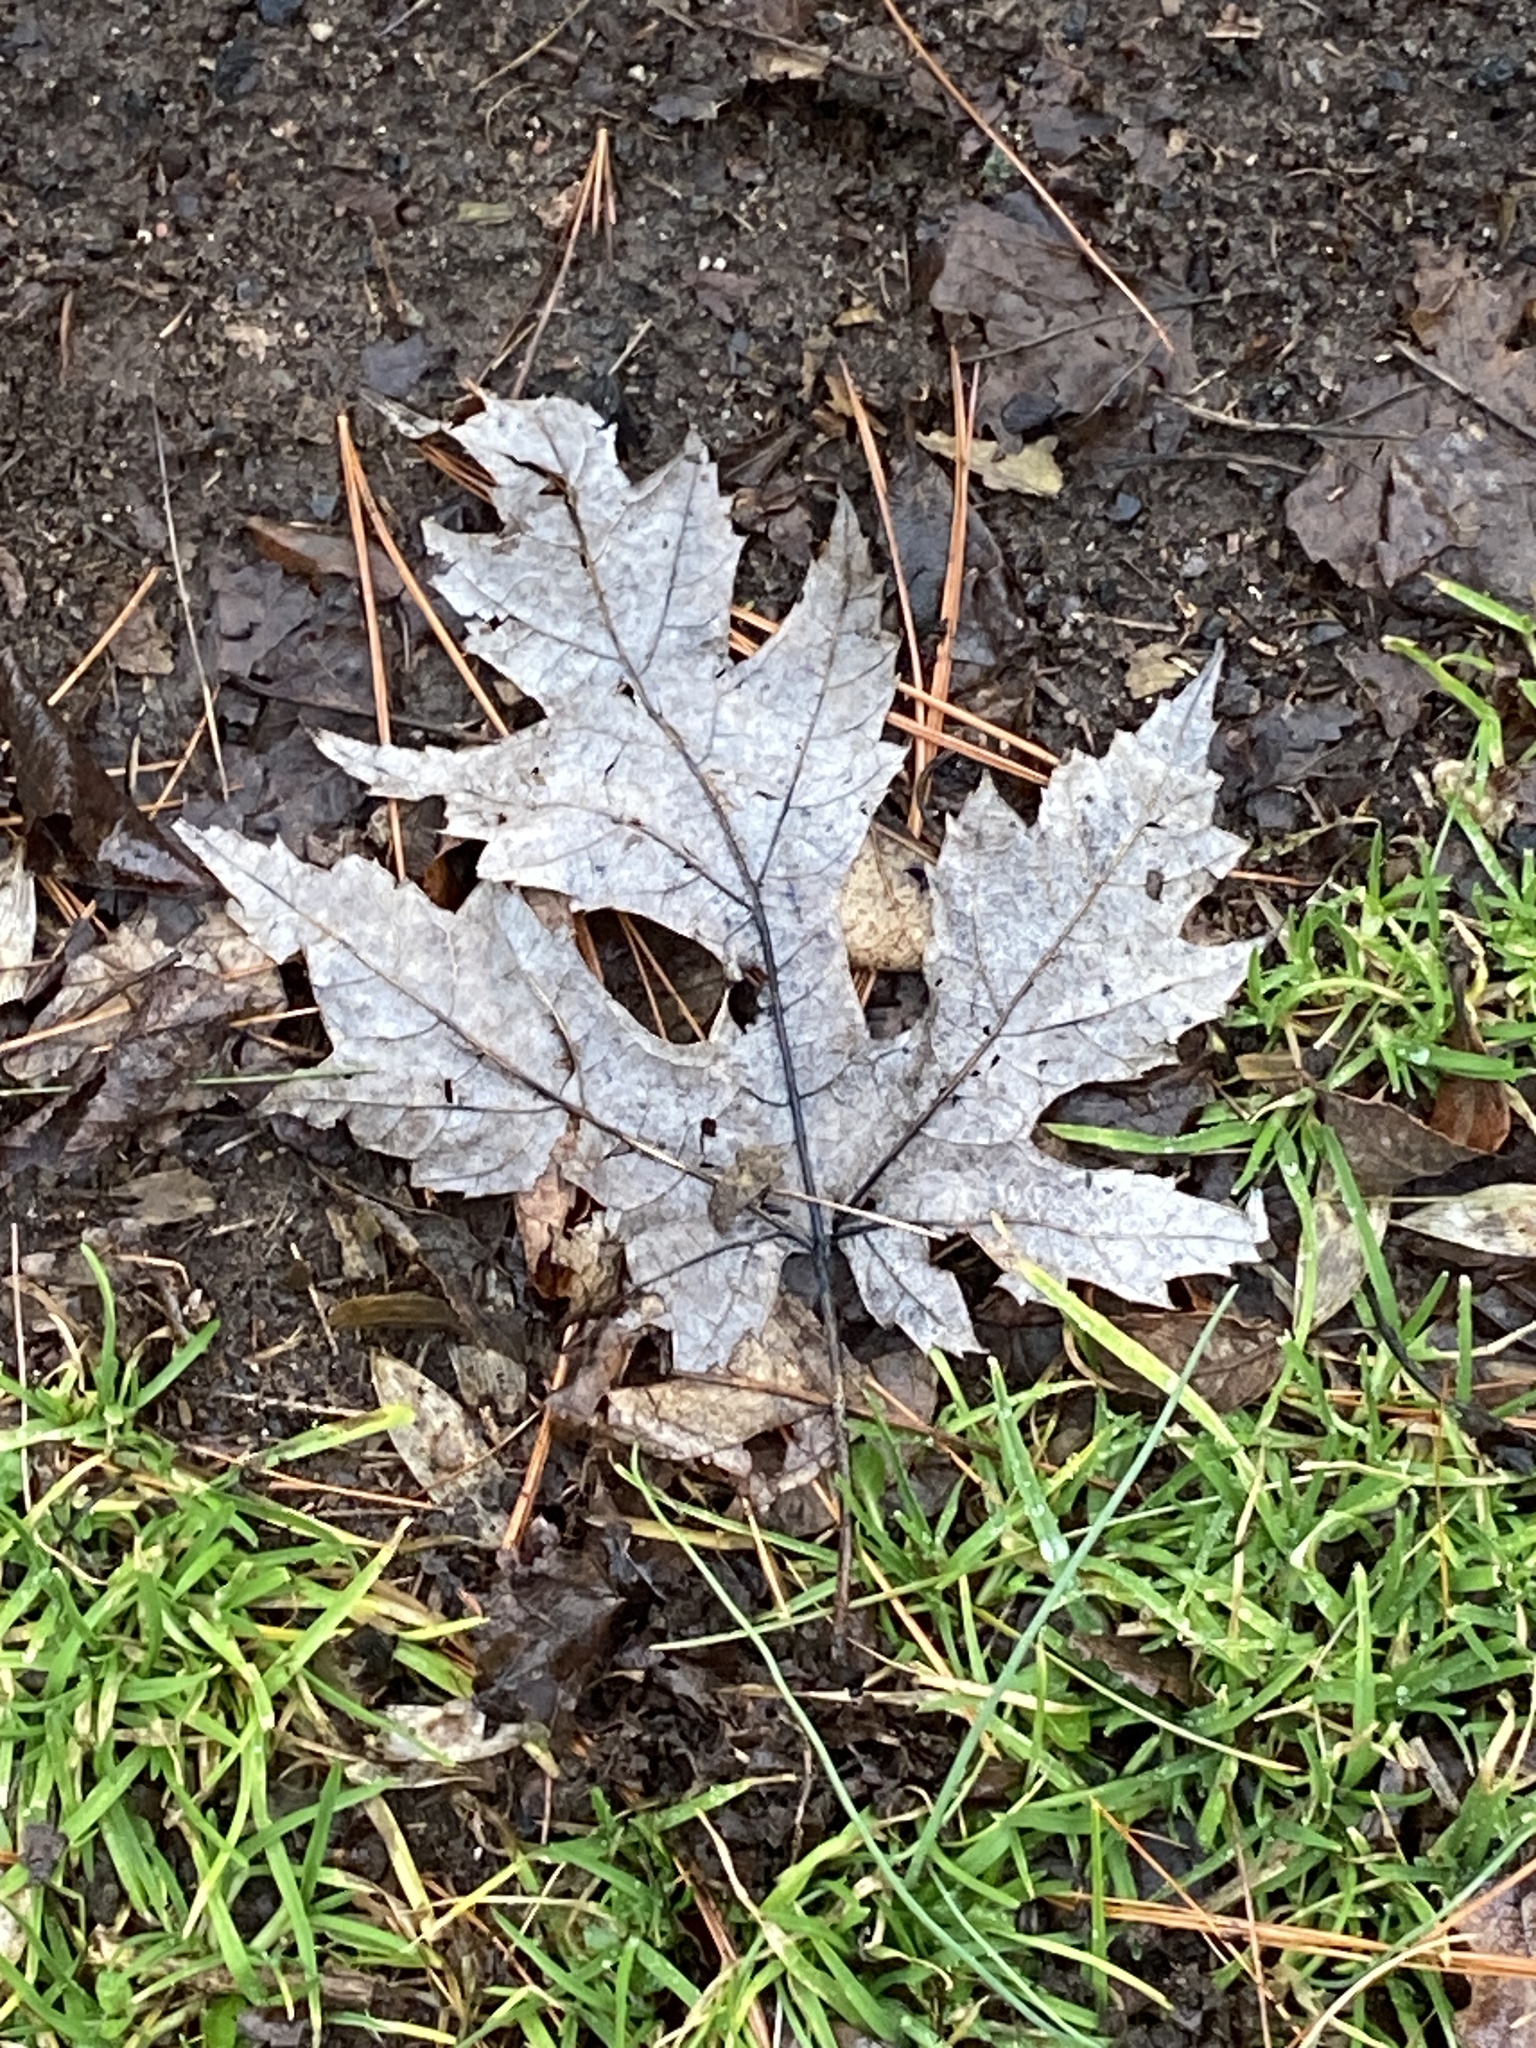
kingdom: Plantae
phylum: Tracheophyta
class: Magnoliopsida
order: Sapindales
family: Sapindaceae
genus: Acer
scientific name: Acer saccharinum
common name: Silver maple
